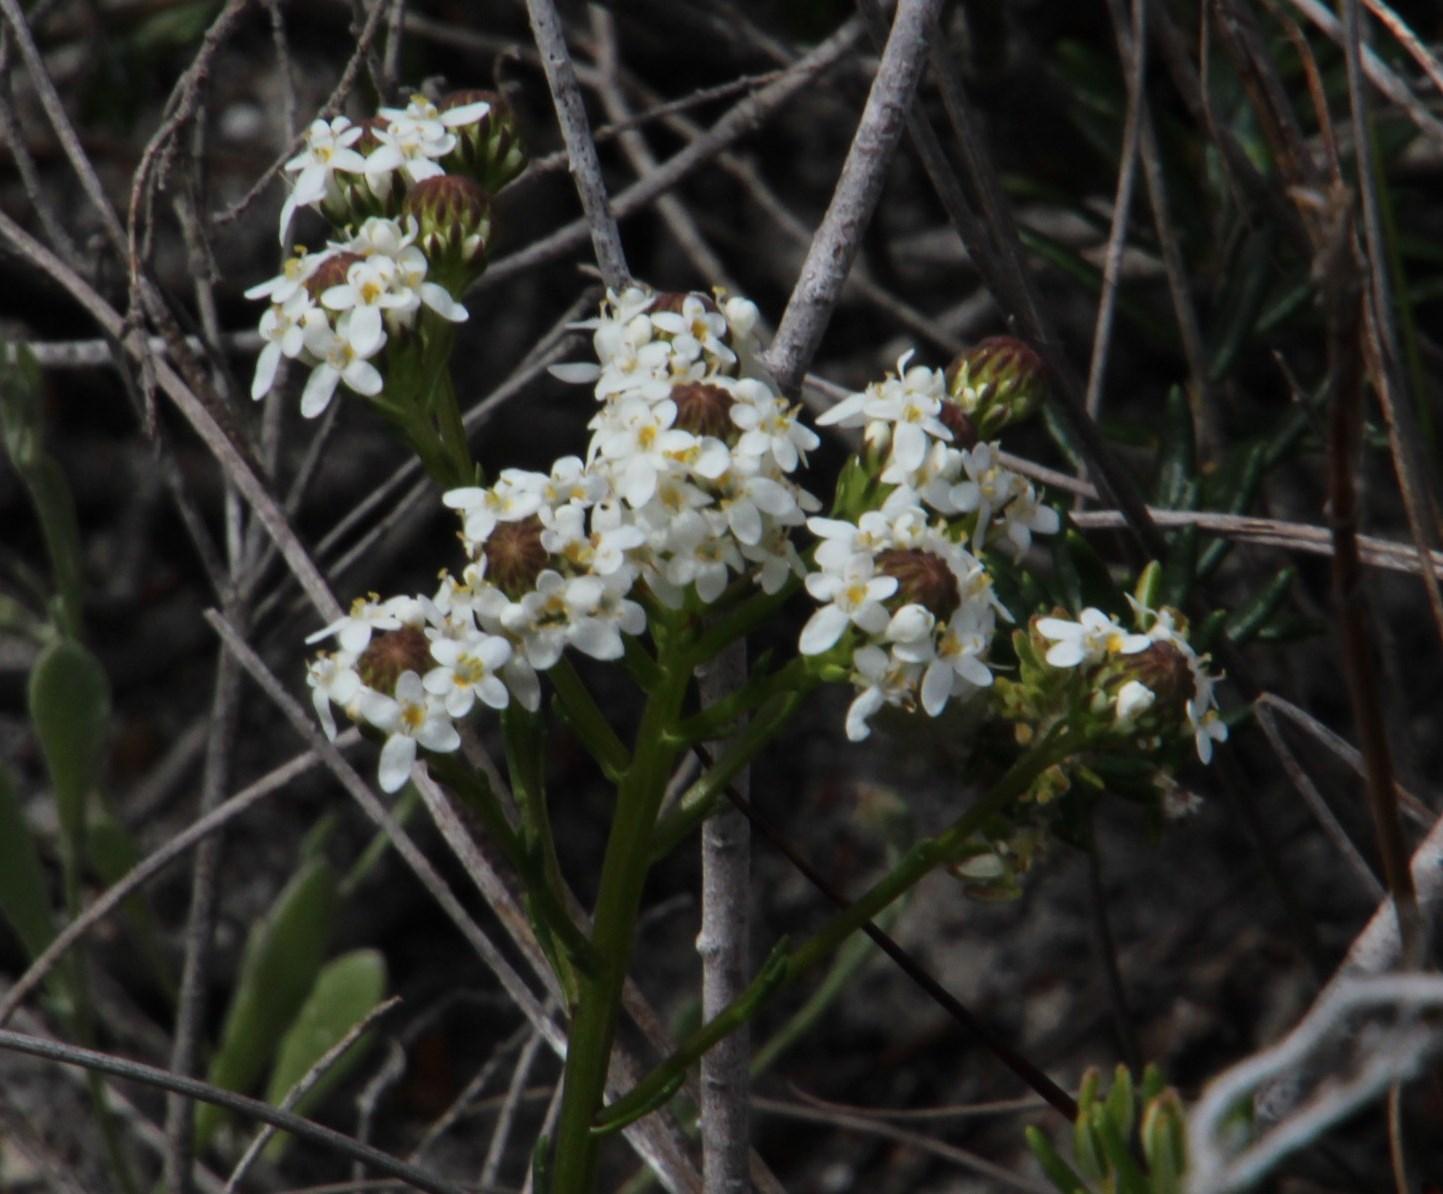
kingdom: Plantae
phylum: Tracheophyta
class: Magnoliopsida
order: Lamiales
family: Scrophulariaceae
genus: Pseudoselago
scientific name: Pseudoselago gracilis
